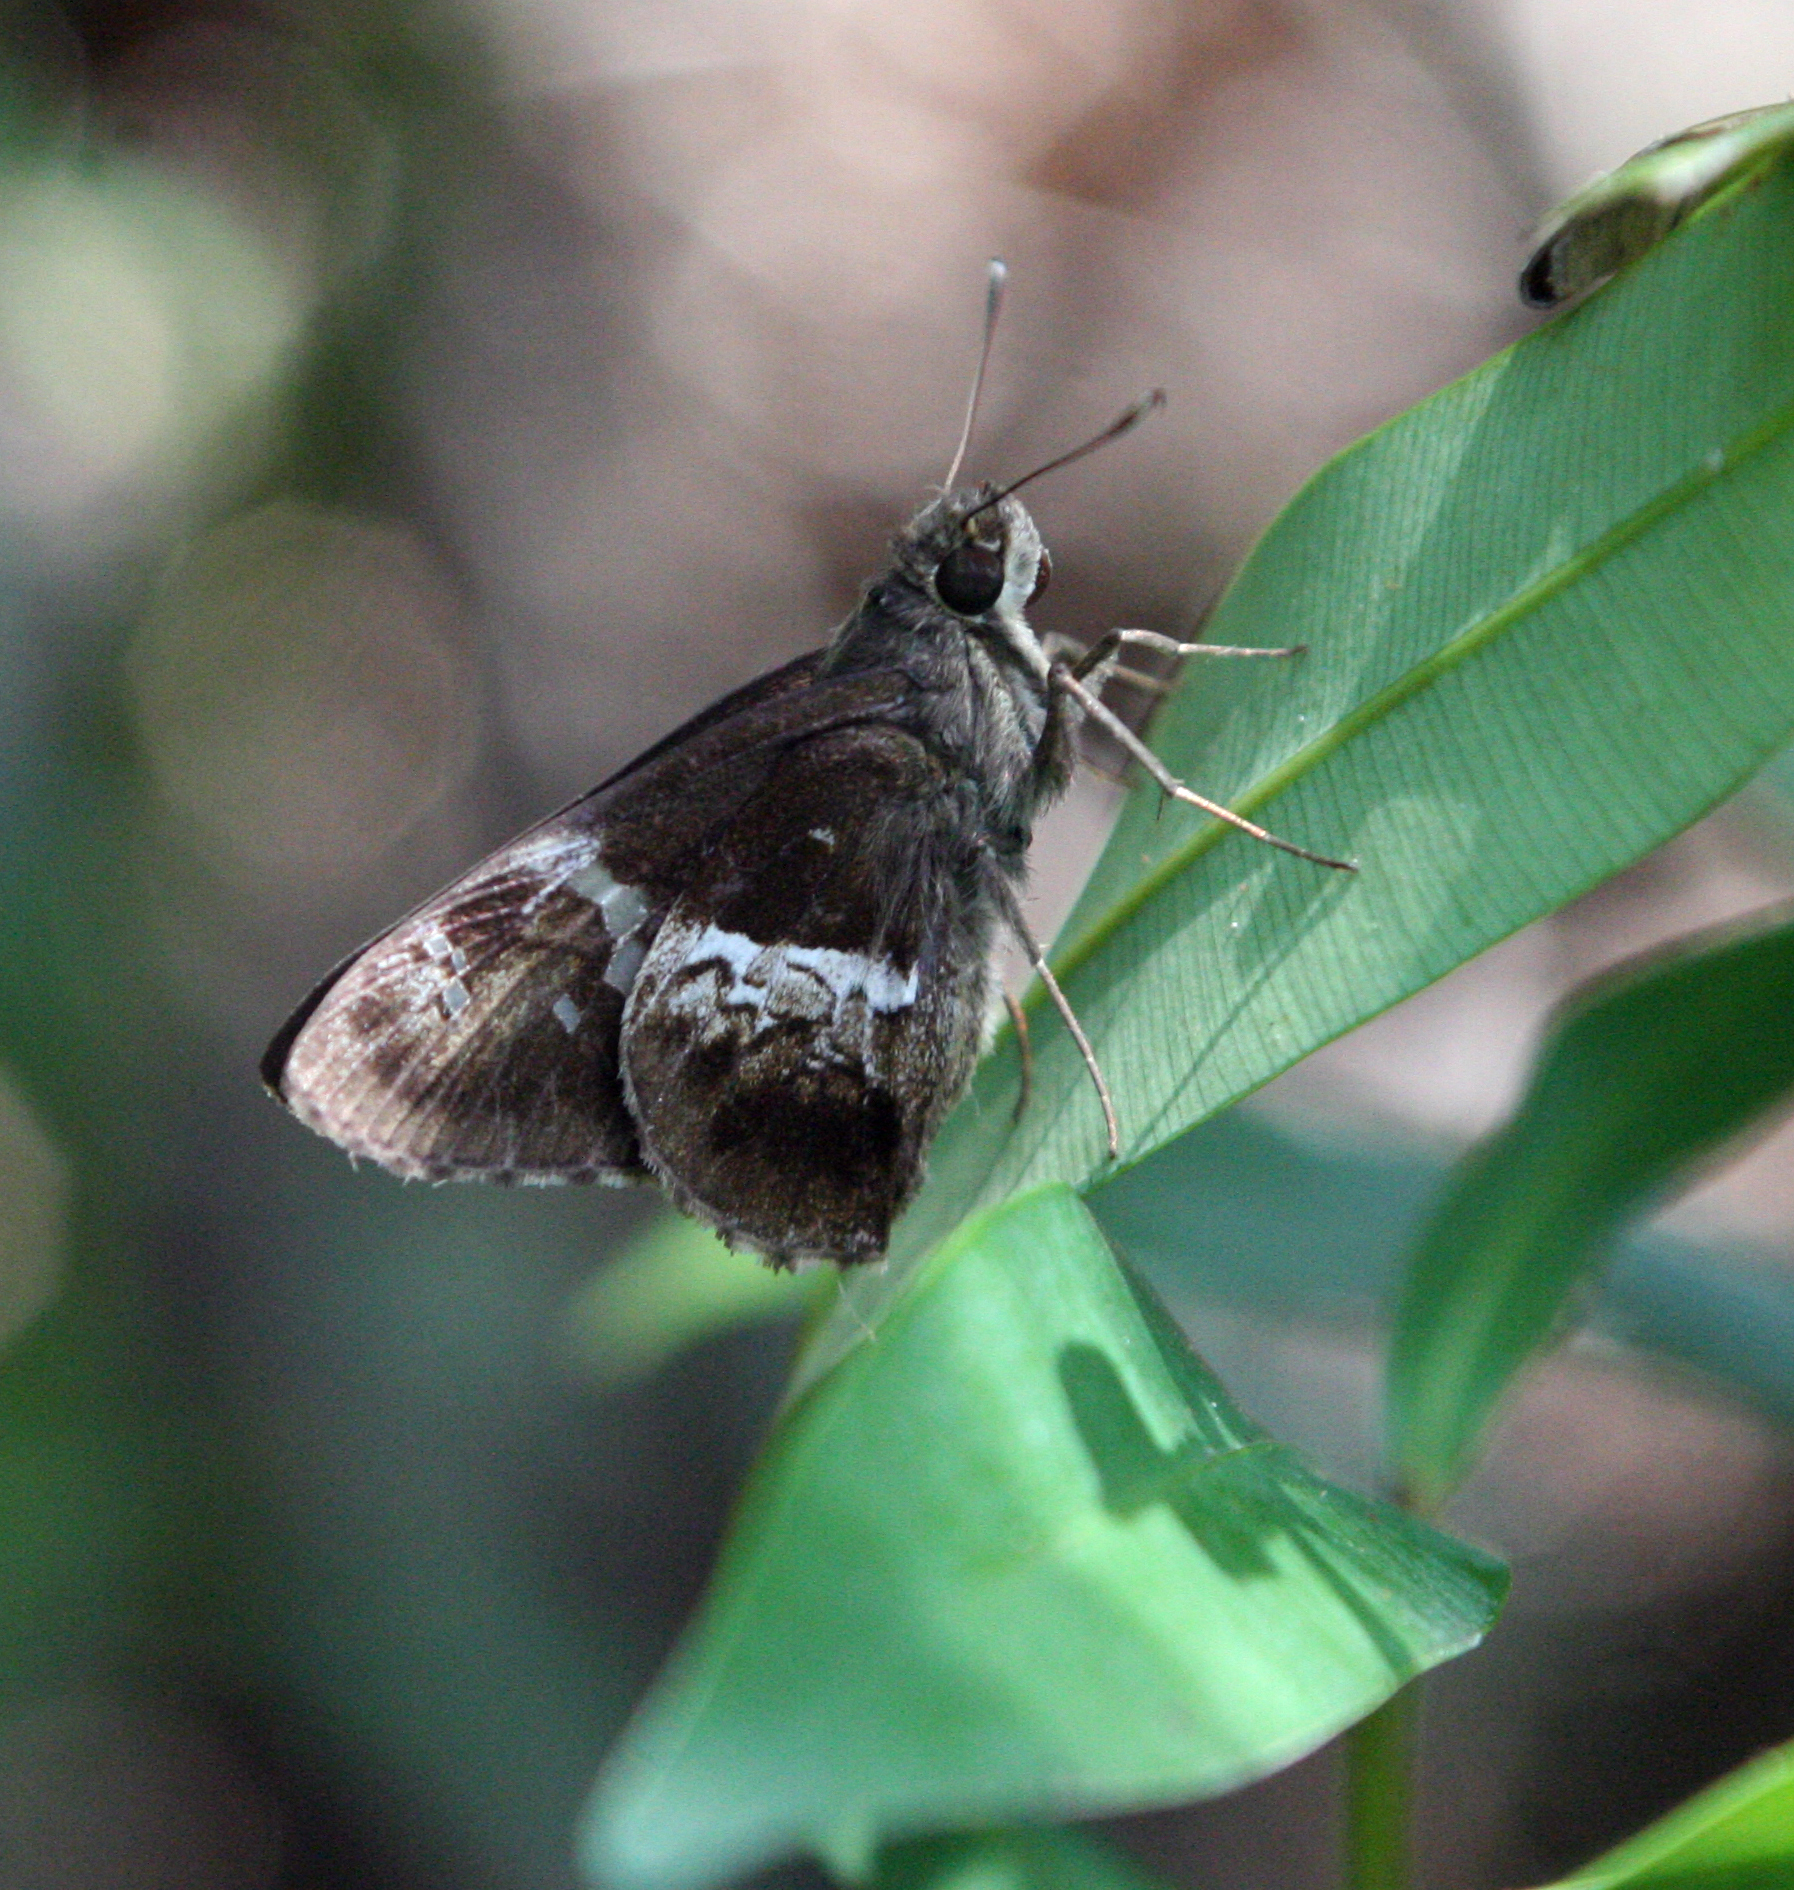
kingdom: Animalia
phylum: Arthropoda
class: Insecta
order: Lepidoptera
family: Hesperiidae
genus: Hyarotis
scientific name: Hyarotis adrastus
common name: Tree flitter
